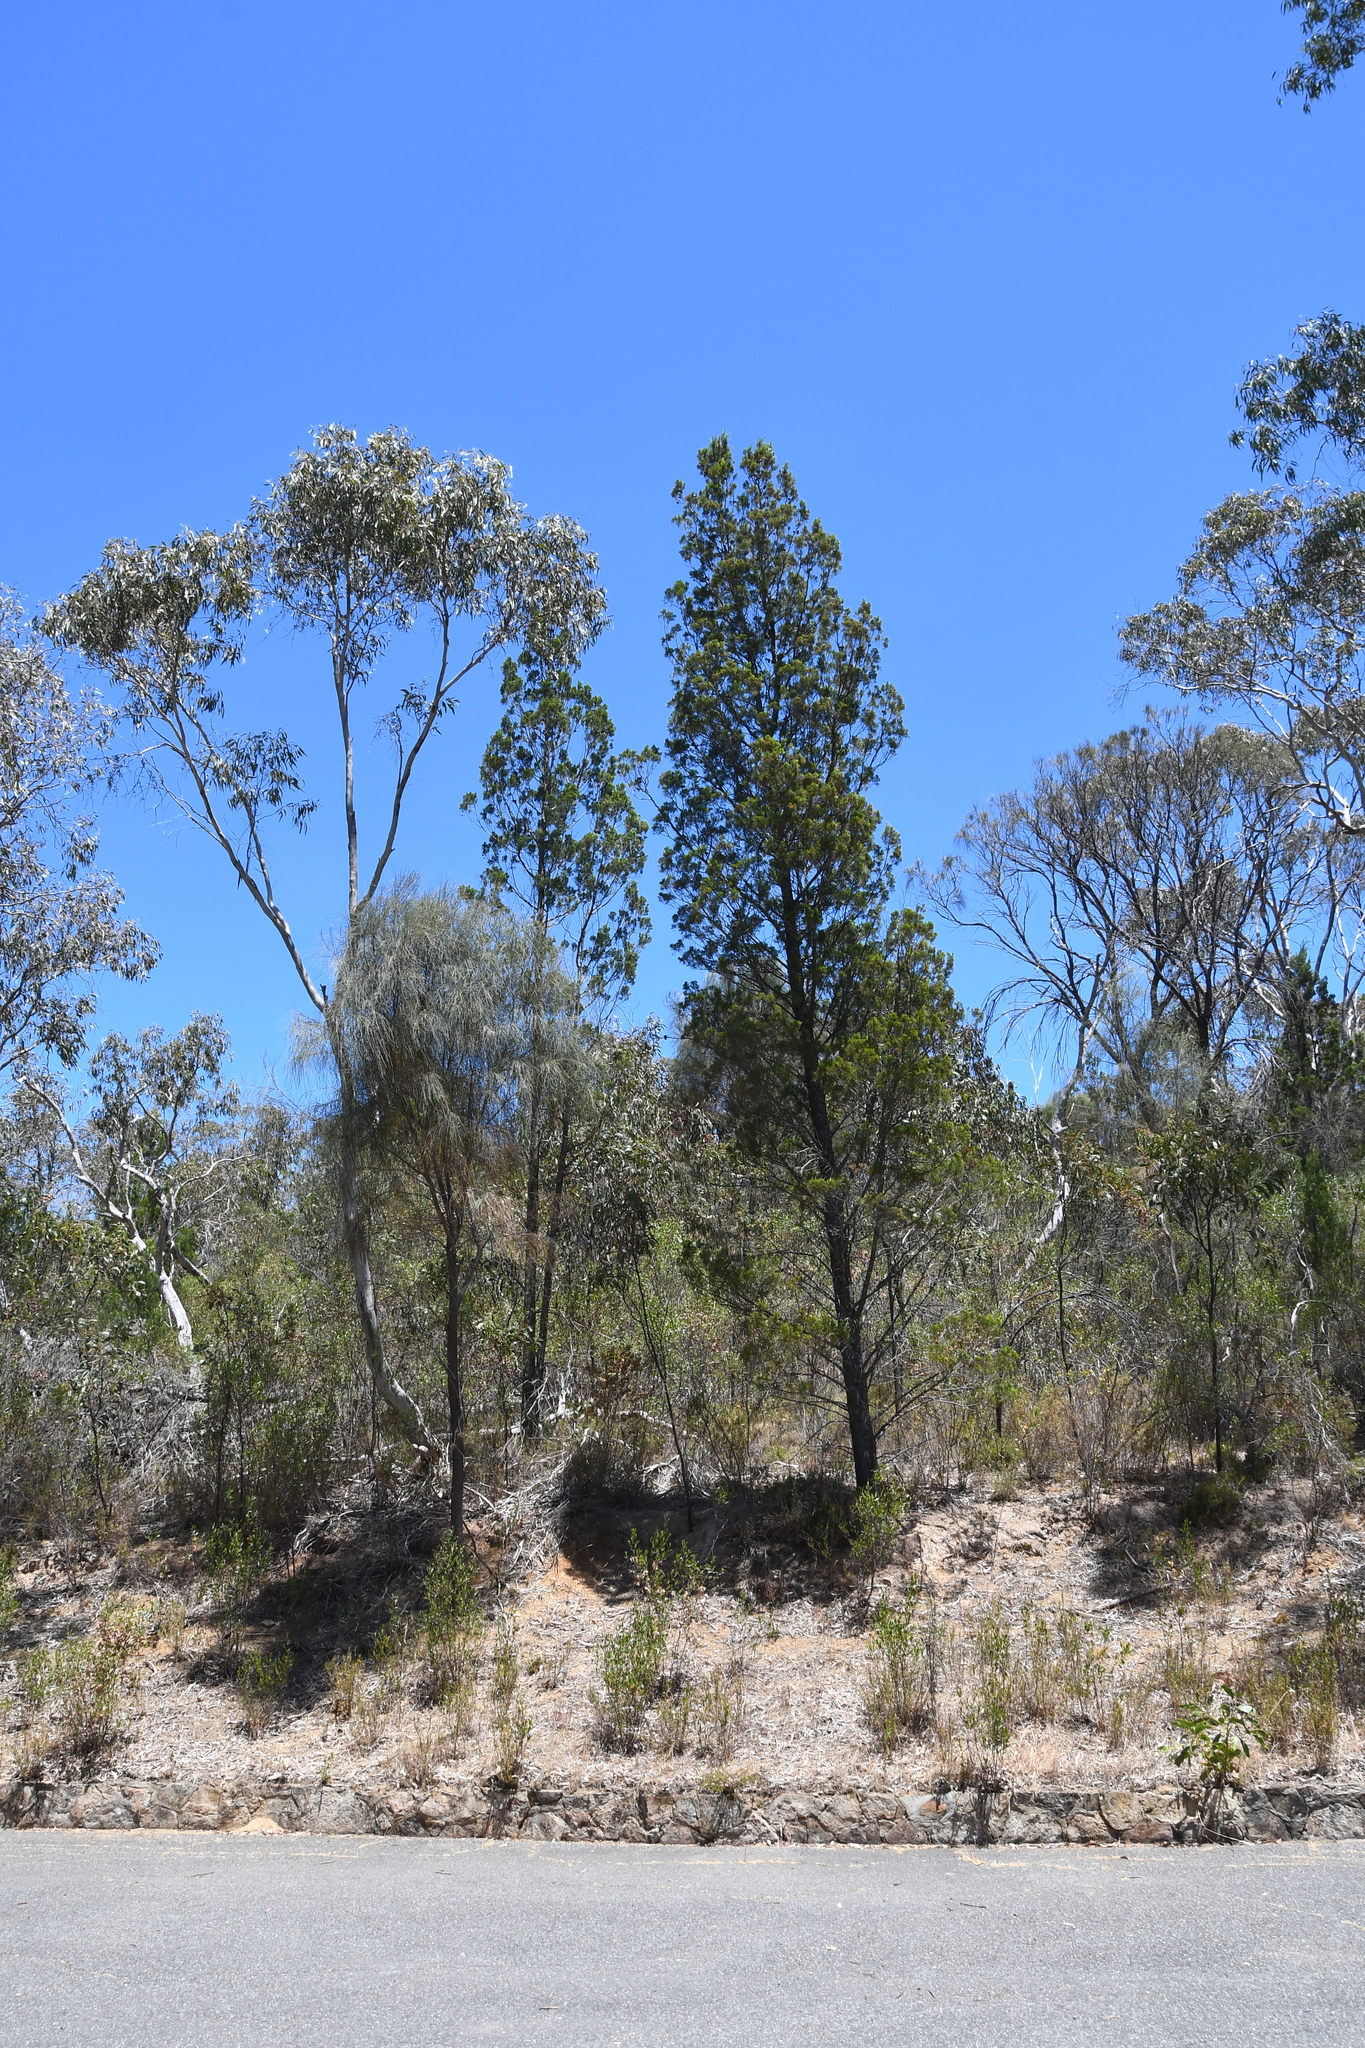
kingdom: Plantae
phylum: Tracheophyta
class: Pinopsida
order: Pinales
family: Cupressaceae
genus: Callitris
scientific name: Callitris preissii
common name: Mallee pine
